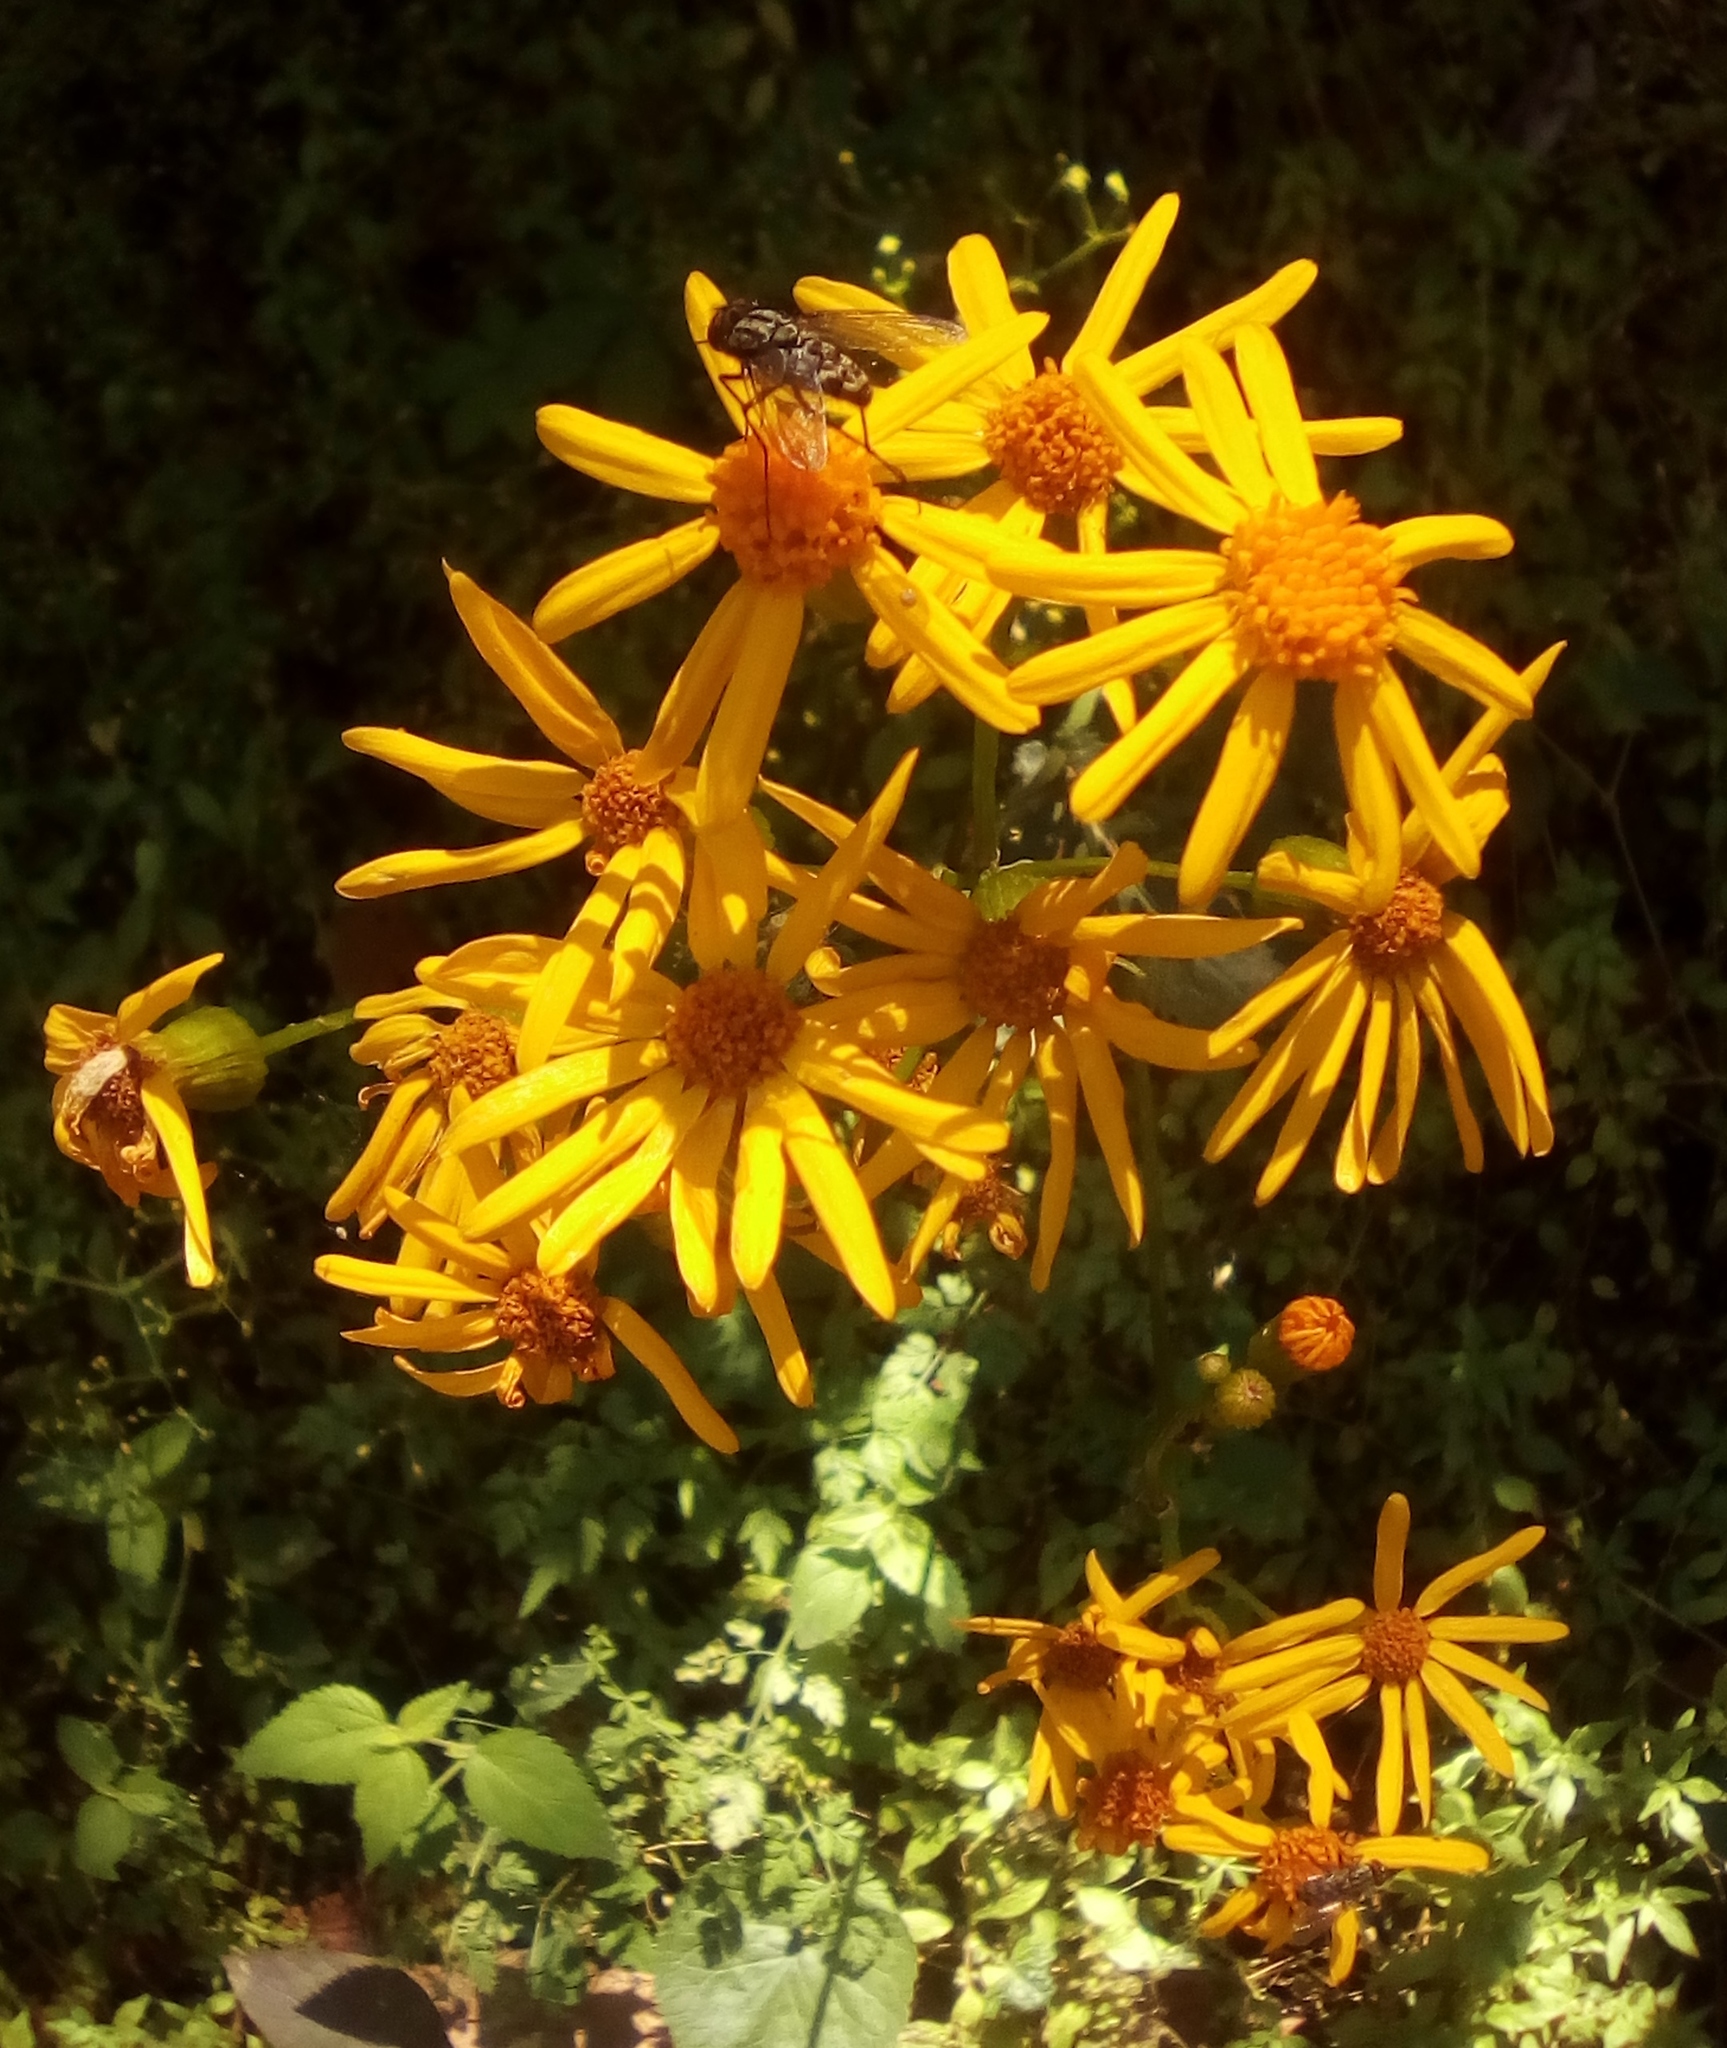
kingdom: Plantae
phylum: Tracheophyta
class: Magnoliopsida
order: Asterales
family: Asteraceae
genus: Packera
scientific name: Packera coahuilensis
